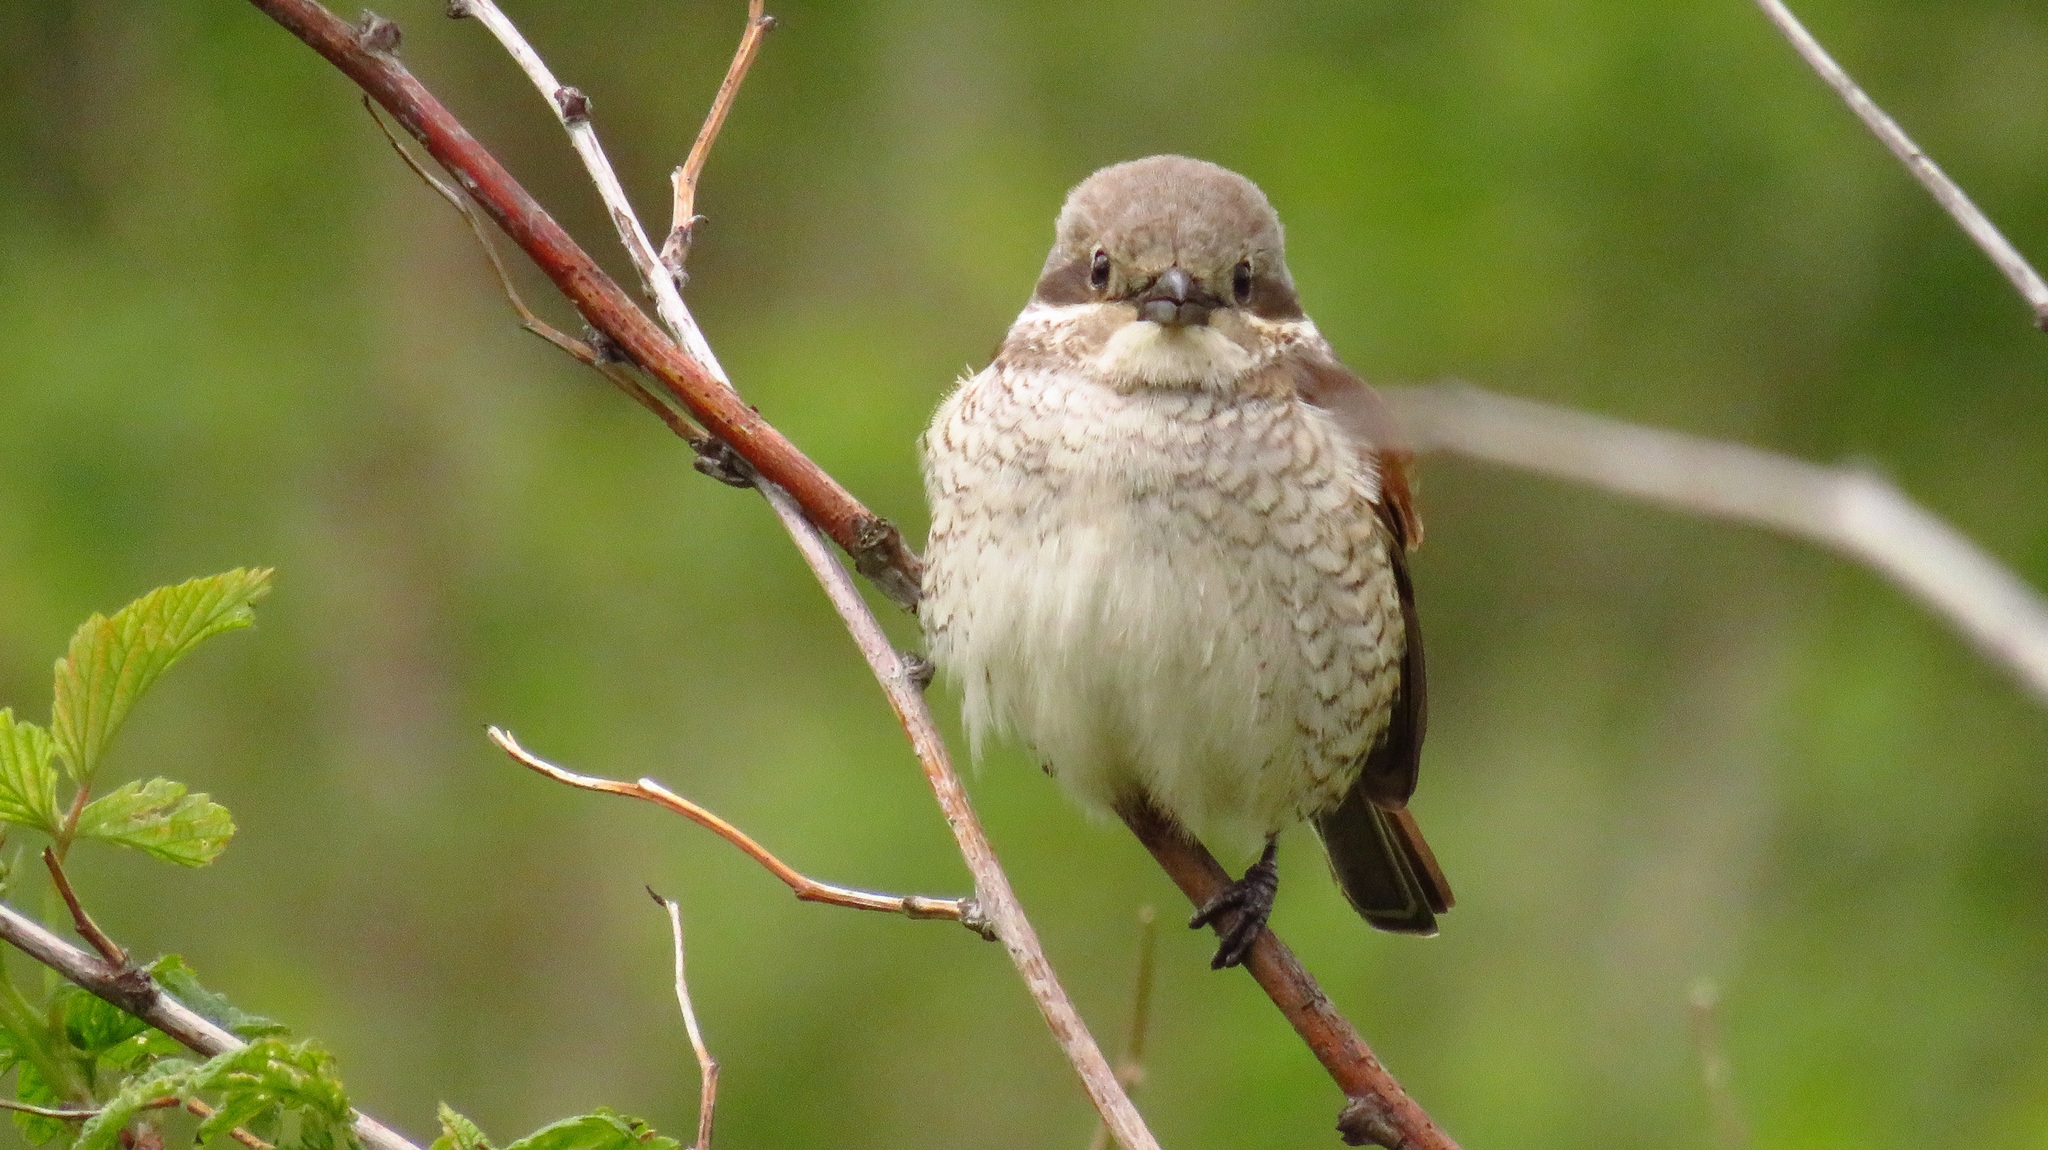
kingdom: Animalia
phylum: Chordata
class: Aves
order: Passeriformes
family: Laniidae
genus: Lanius
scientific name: Lanius collurio
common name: Red-backed shrike
